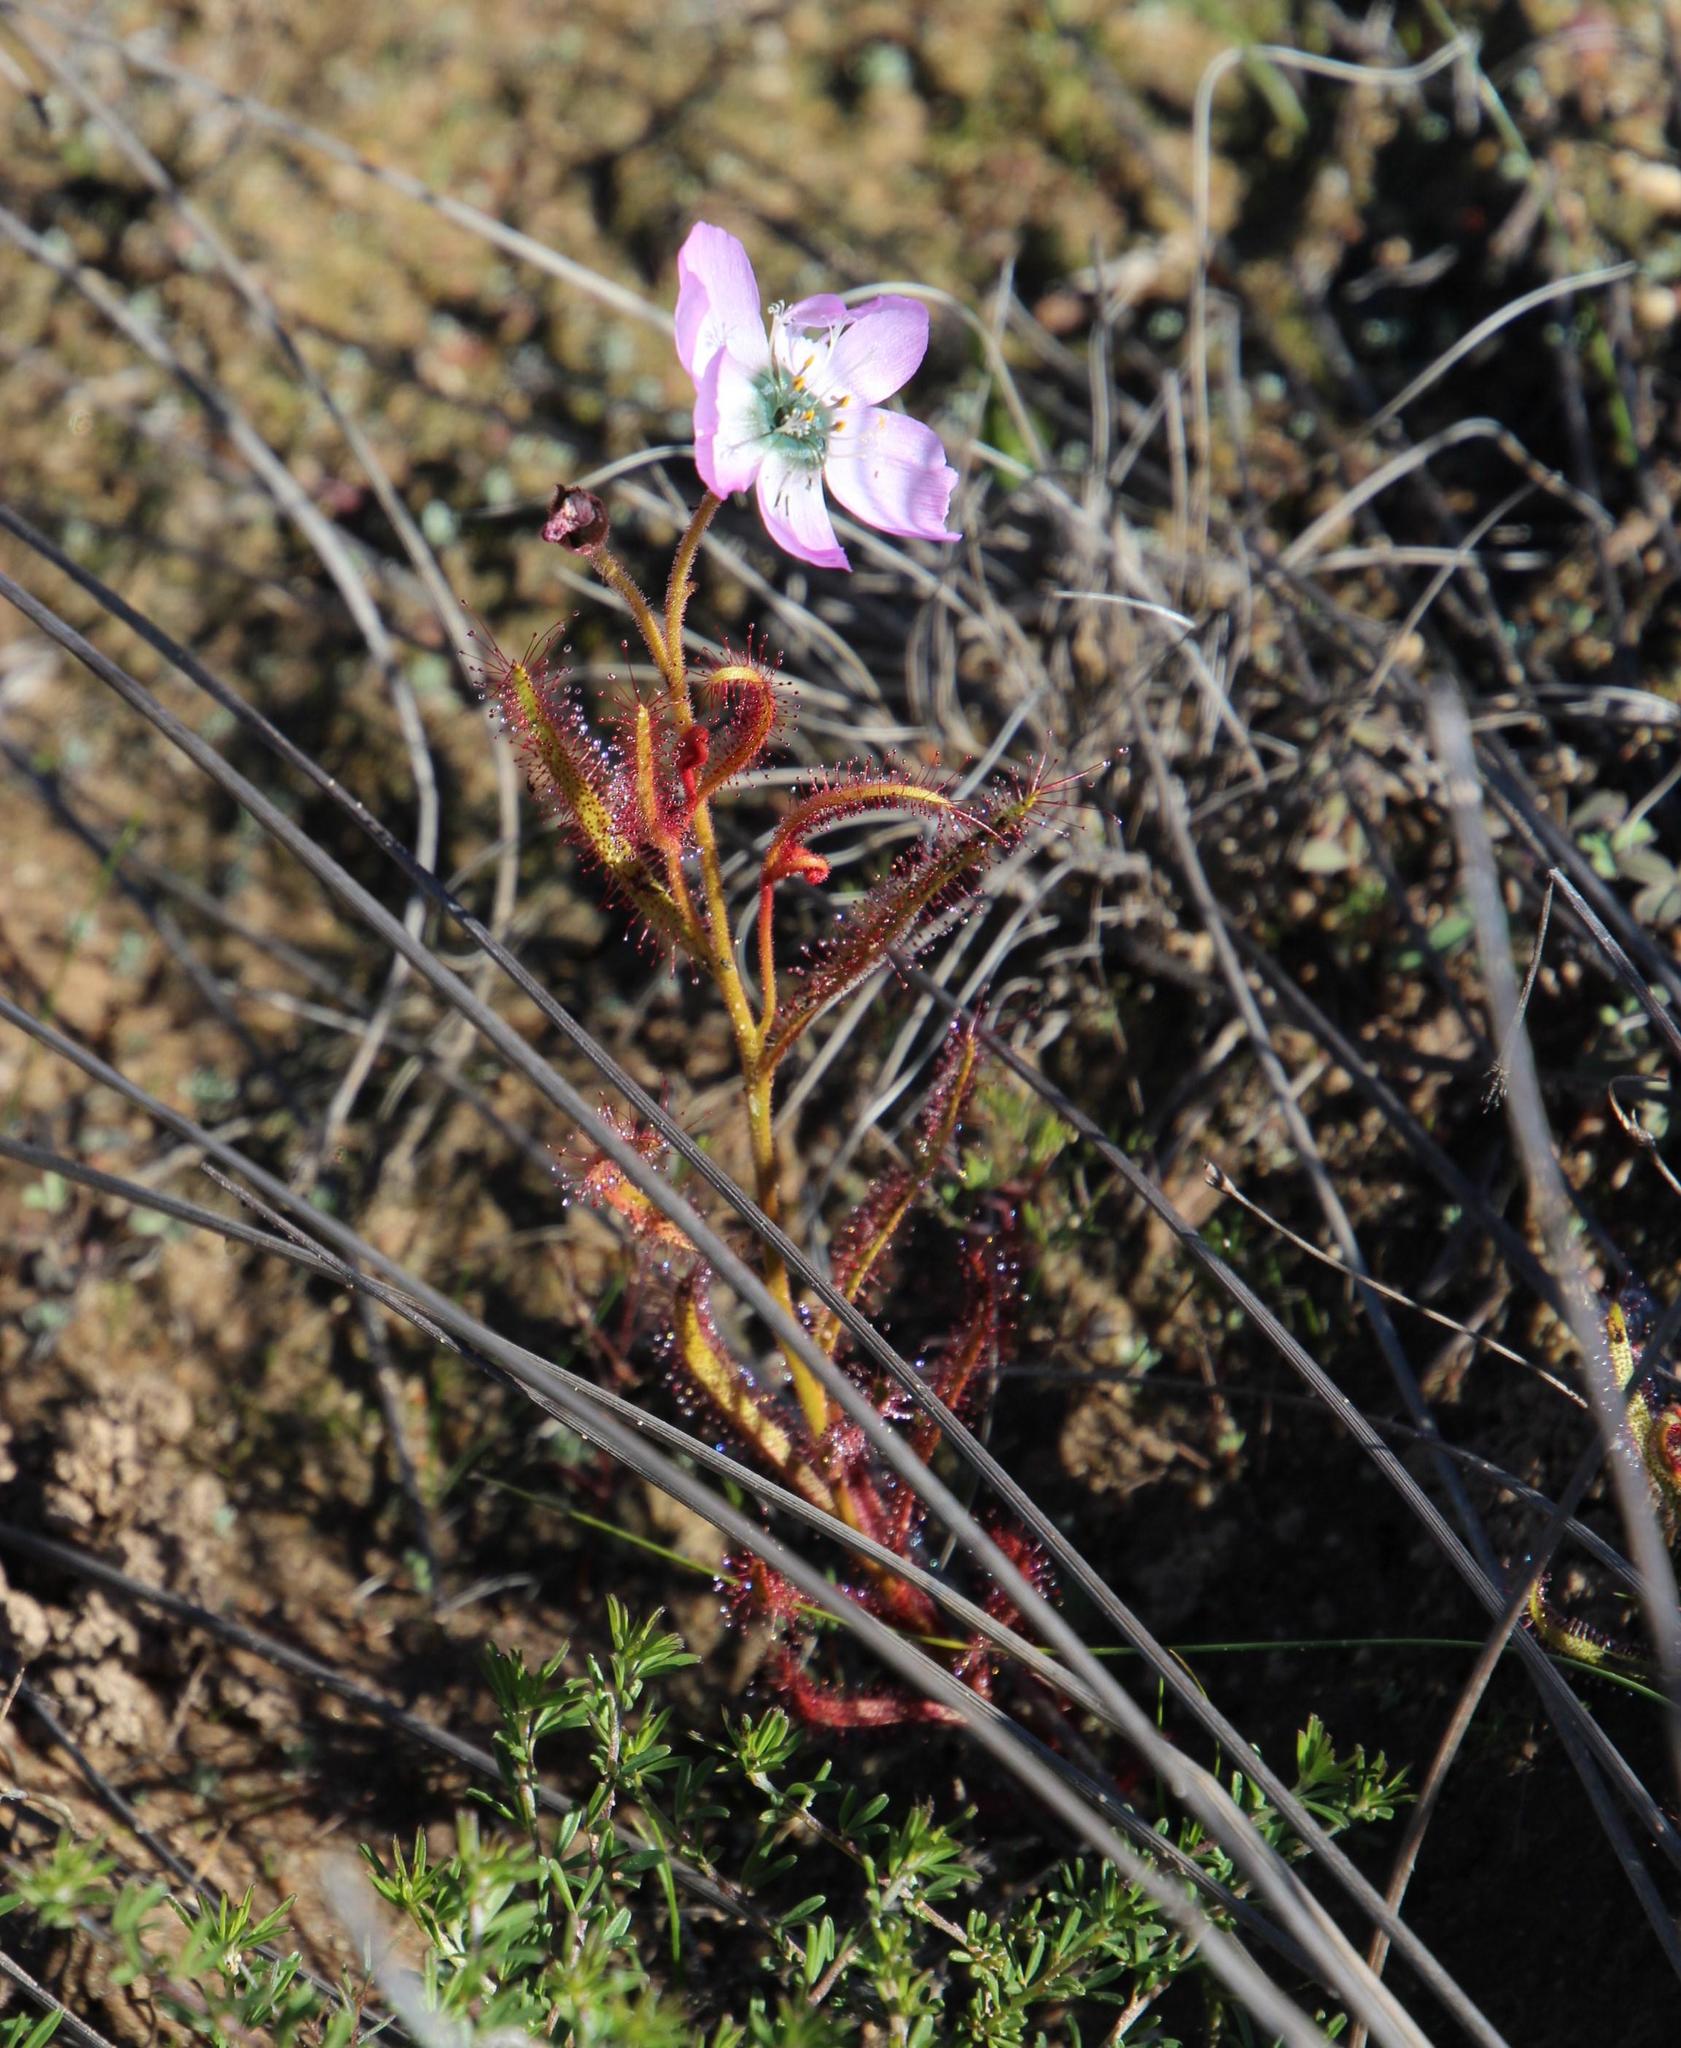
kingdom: Plantae
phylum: Tracheophyta
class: Magnoliopsida
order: Caryophyllales
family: Droseraceae
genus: Drosera
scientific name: Drosera cistiflora
